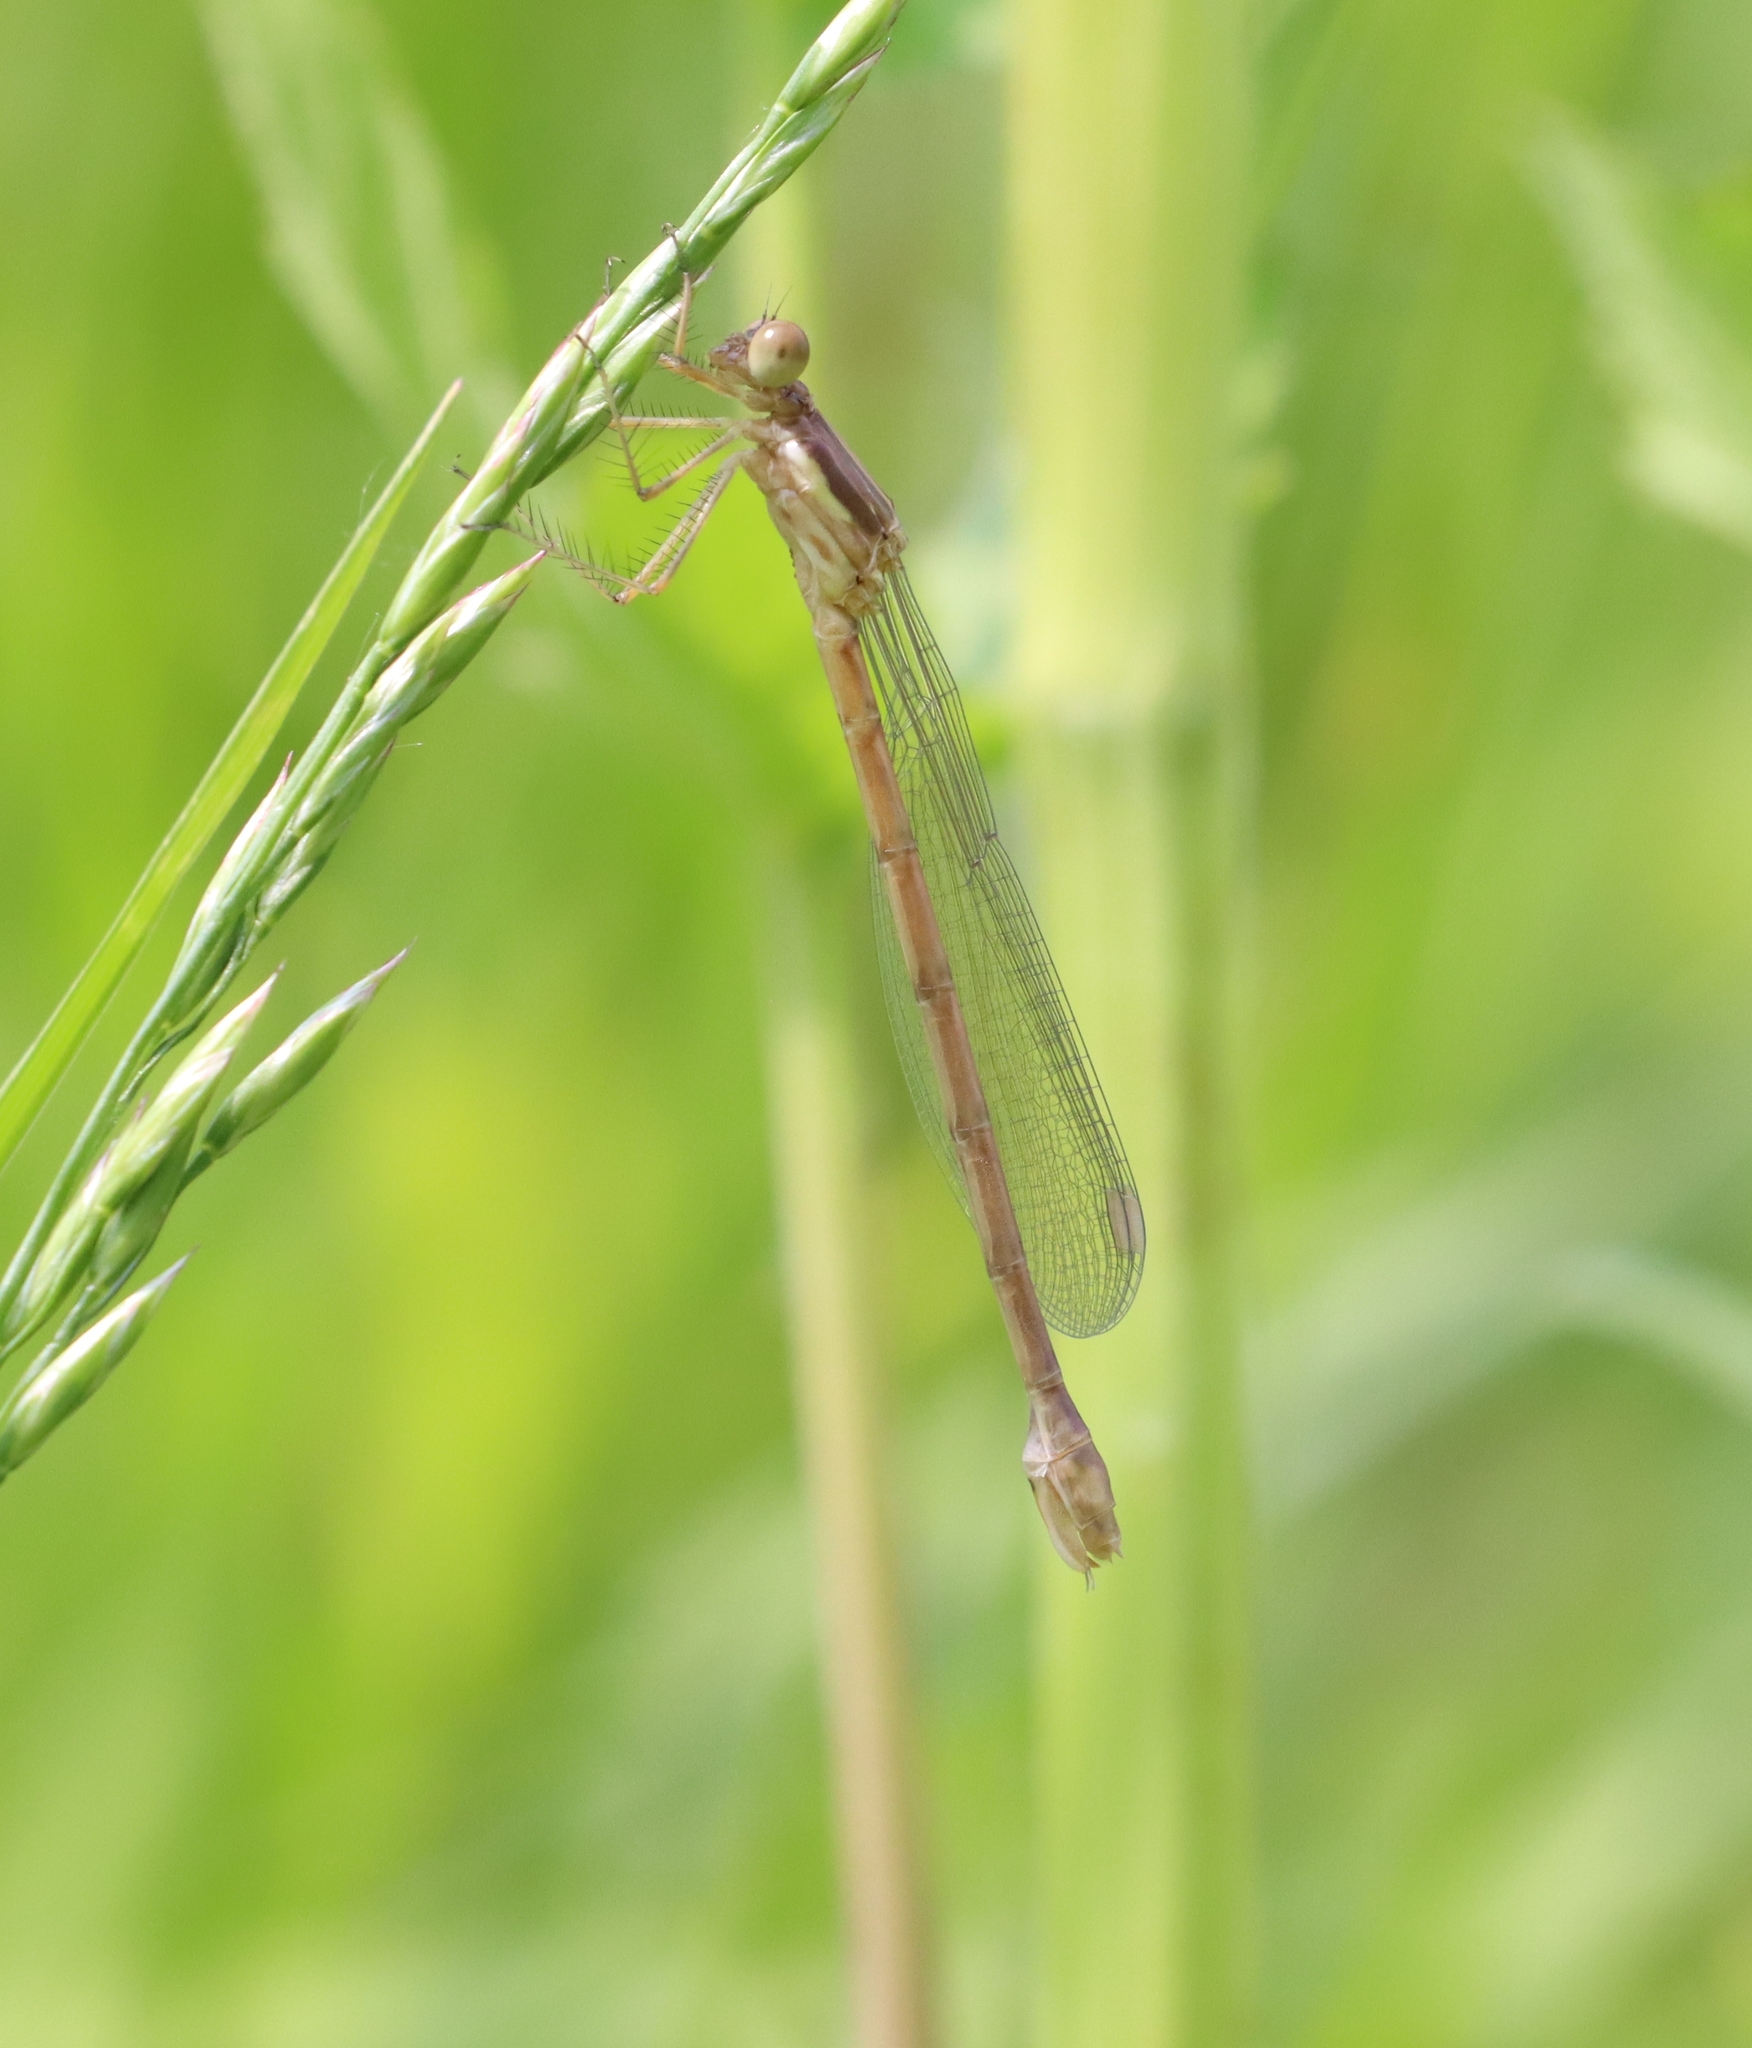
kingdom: Animalia
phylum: Arthropoda
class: Insecta
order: Odonata
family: Lestidae
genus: Lestes
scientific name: Lestes forcipatus
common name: Sweetflag spreadwing
